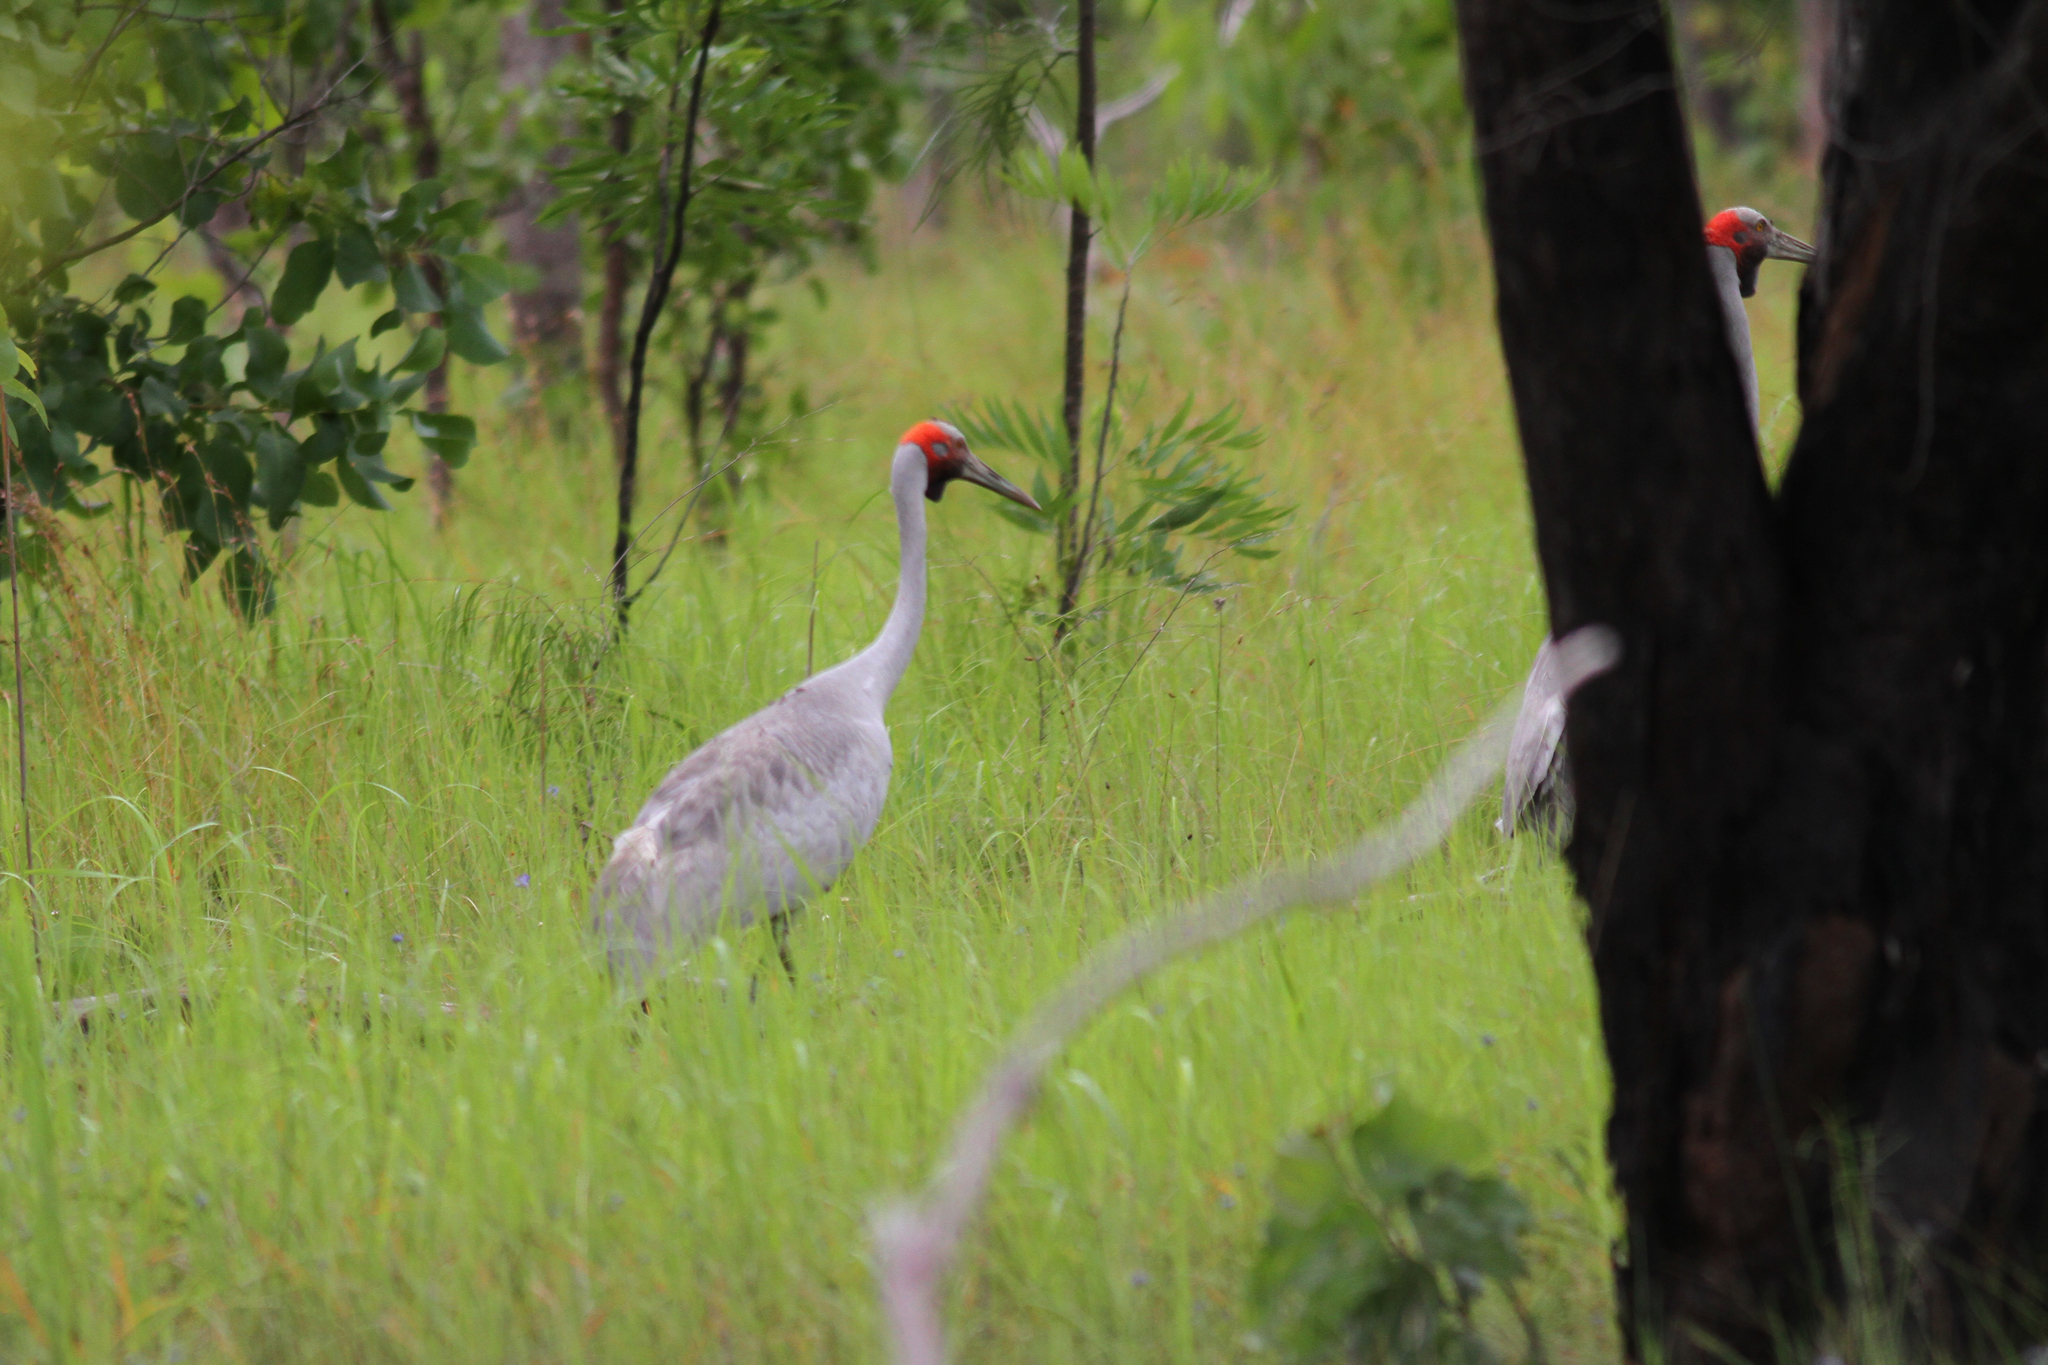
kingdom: Animalia
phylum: Chordata
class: Aves
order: Gruiformes
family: Gruidae
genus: Grus
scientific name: Grus rubicunda
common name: Brolga
